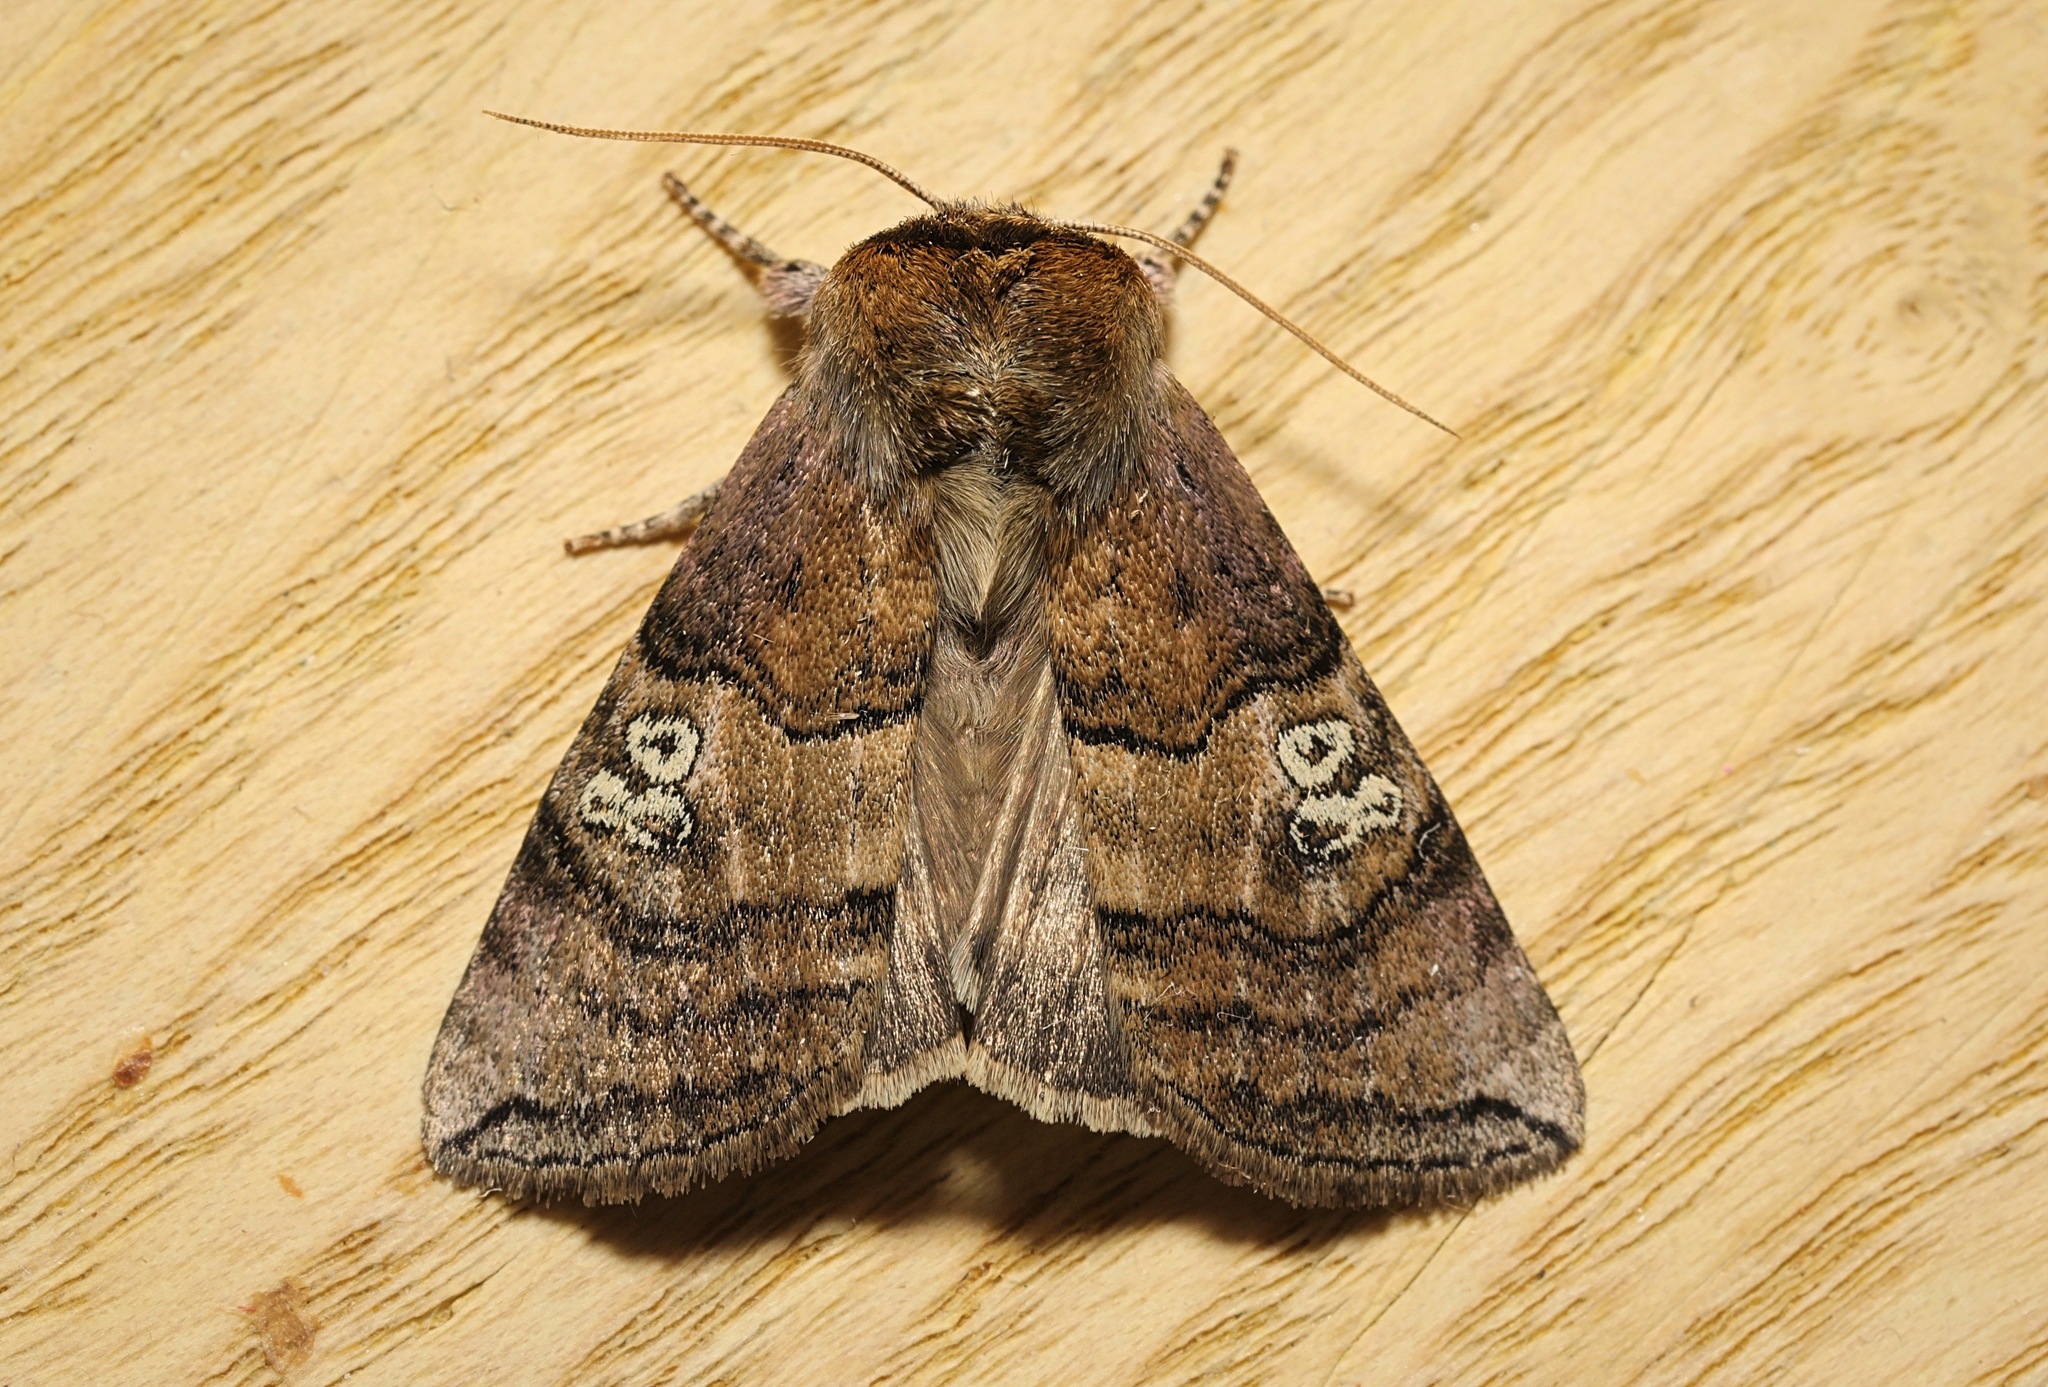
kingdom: Animalia
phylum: Arthropoda
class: Insecta
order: Lepidoptera
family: Drepanidae
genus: Tethea
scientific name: Tethea ocularis
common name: Figure of eighty
